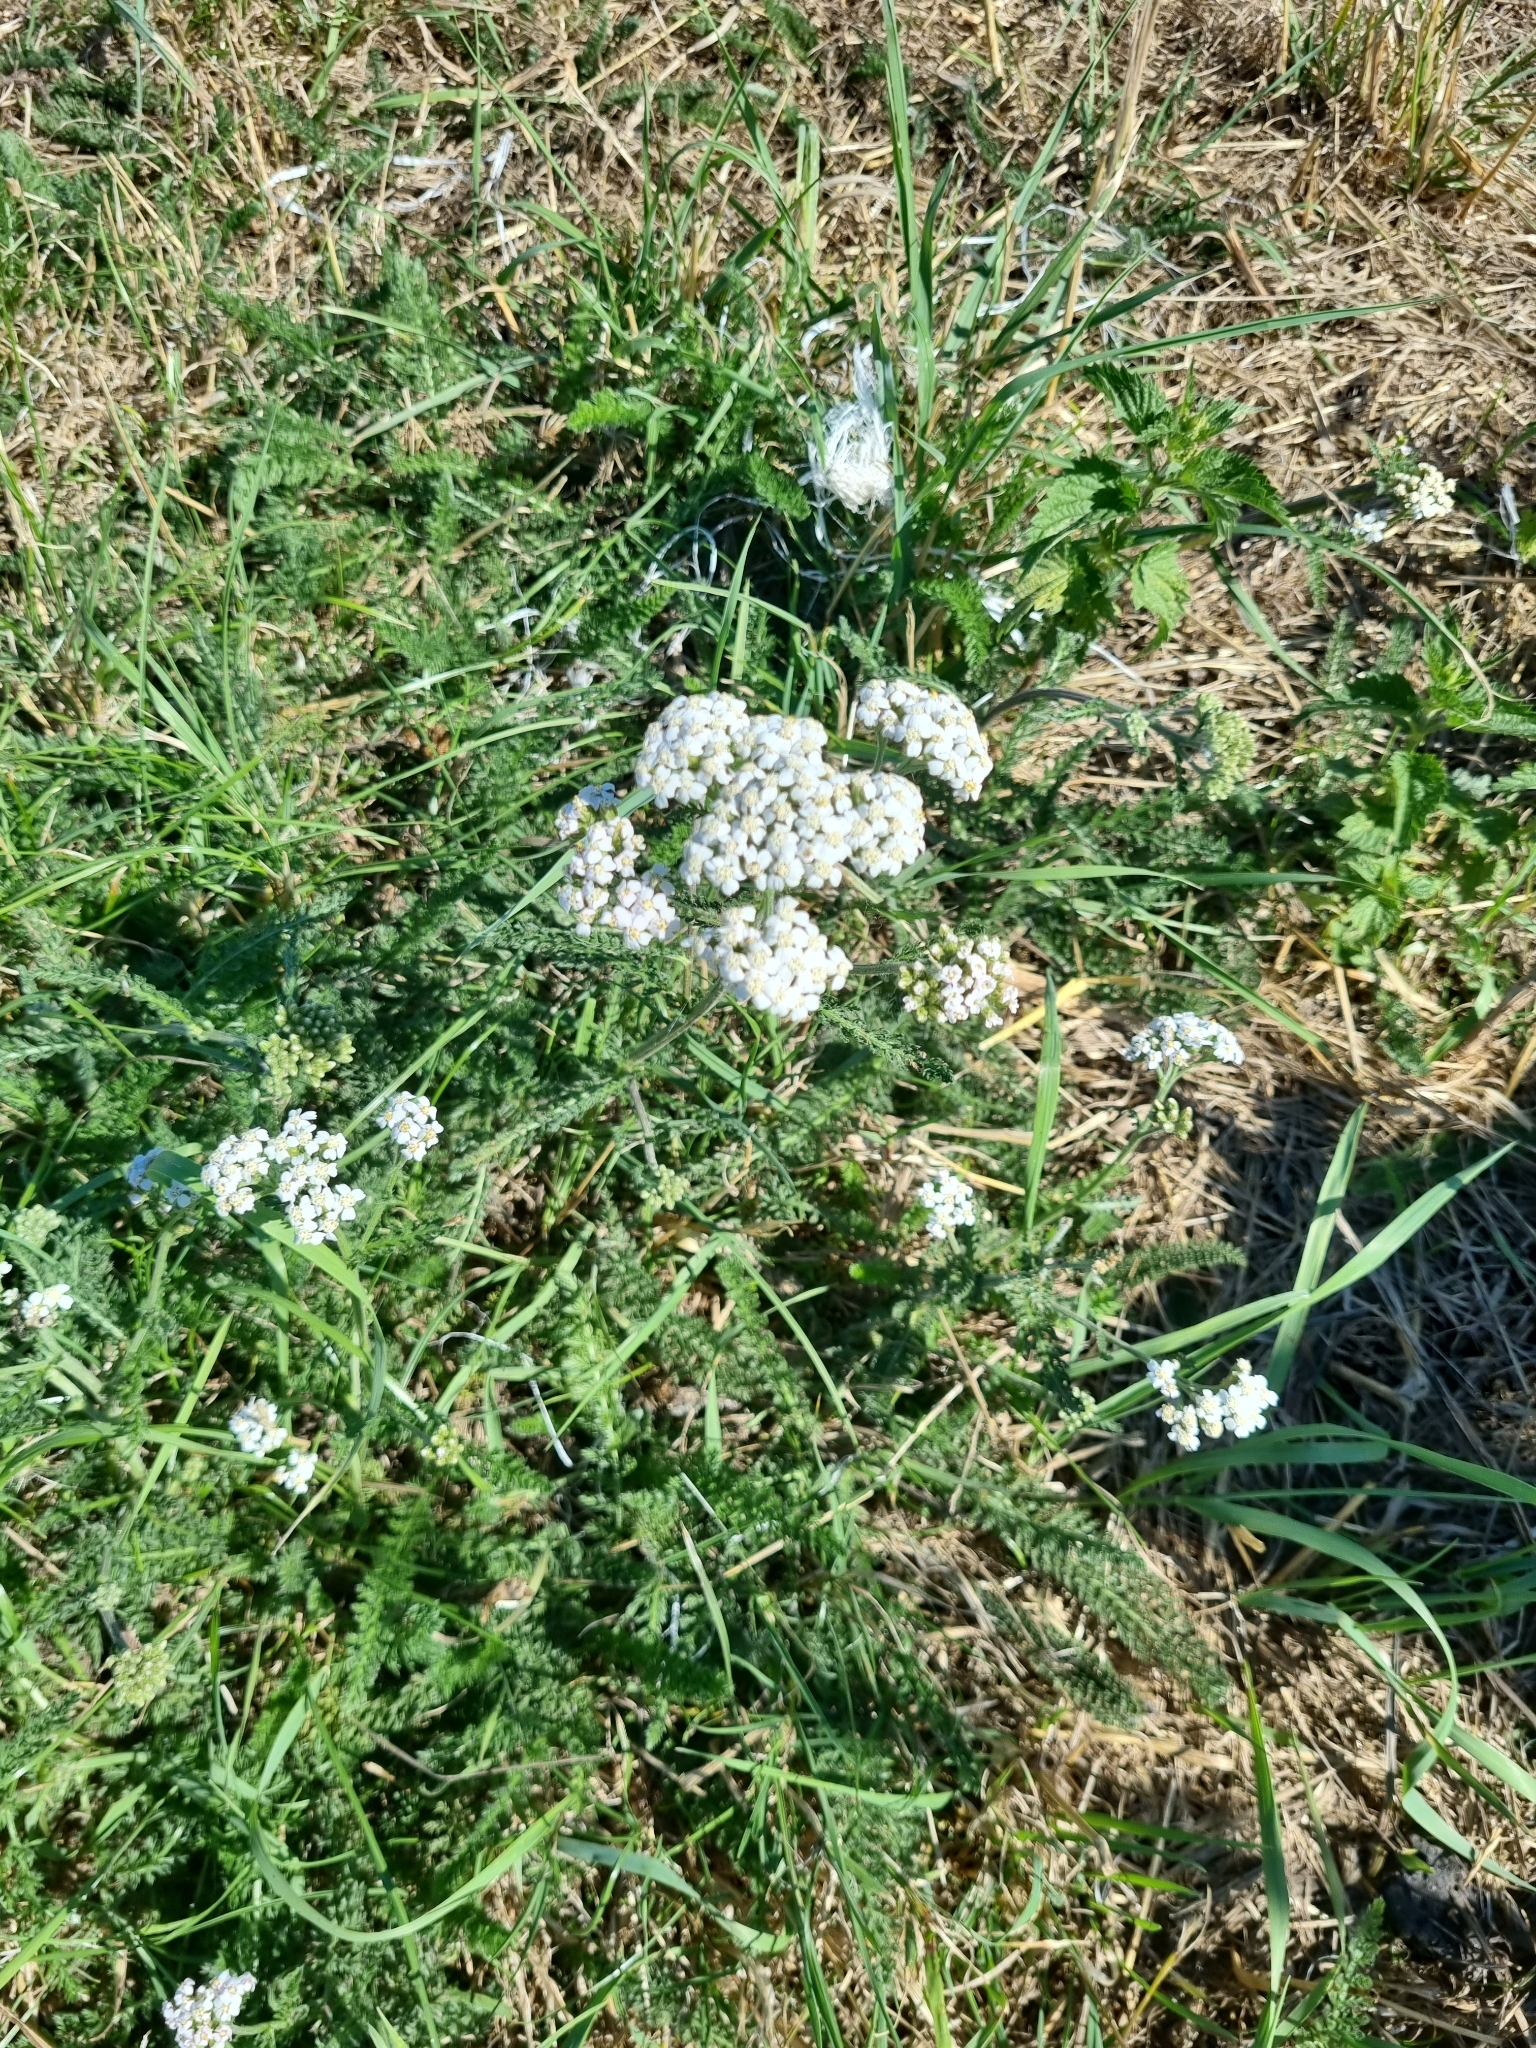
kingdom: Plantae
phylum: Tracheophyta
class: Magnoliopsida
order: Asterales
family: Asteraceae
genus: Achillea
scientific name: Achillea millefolium
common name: Yarrow
